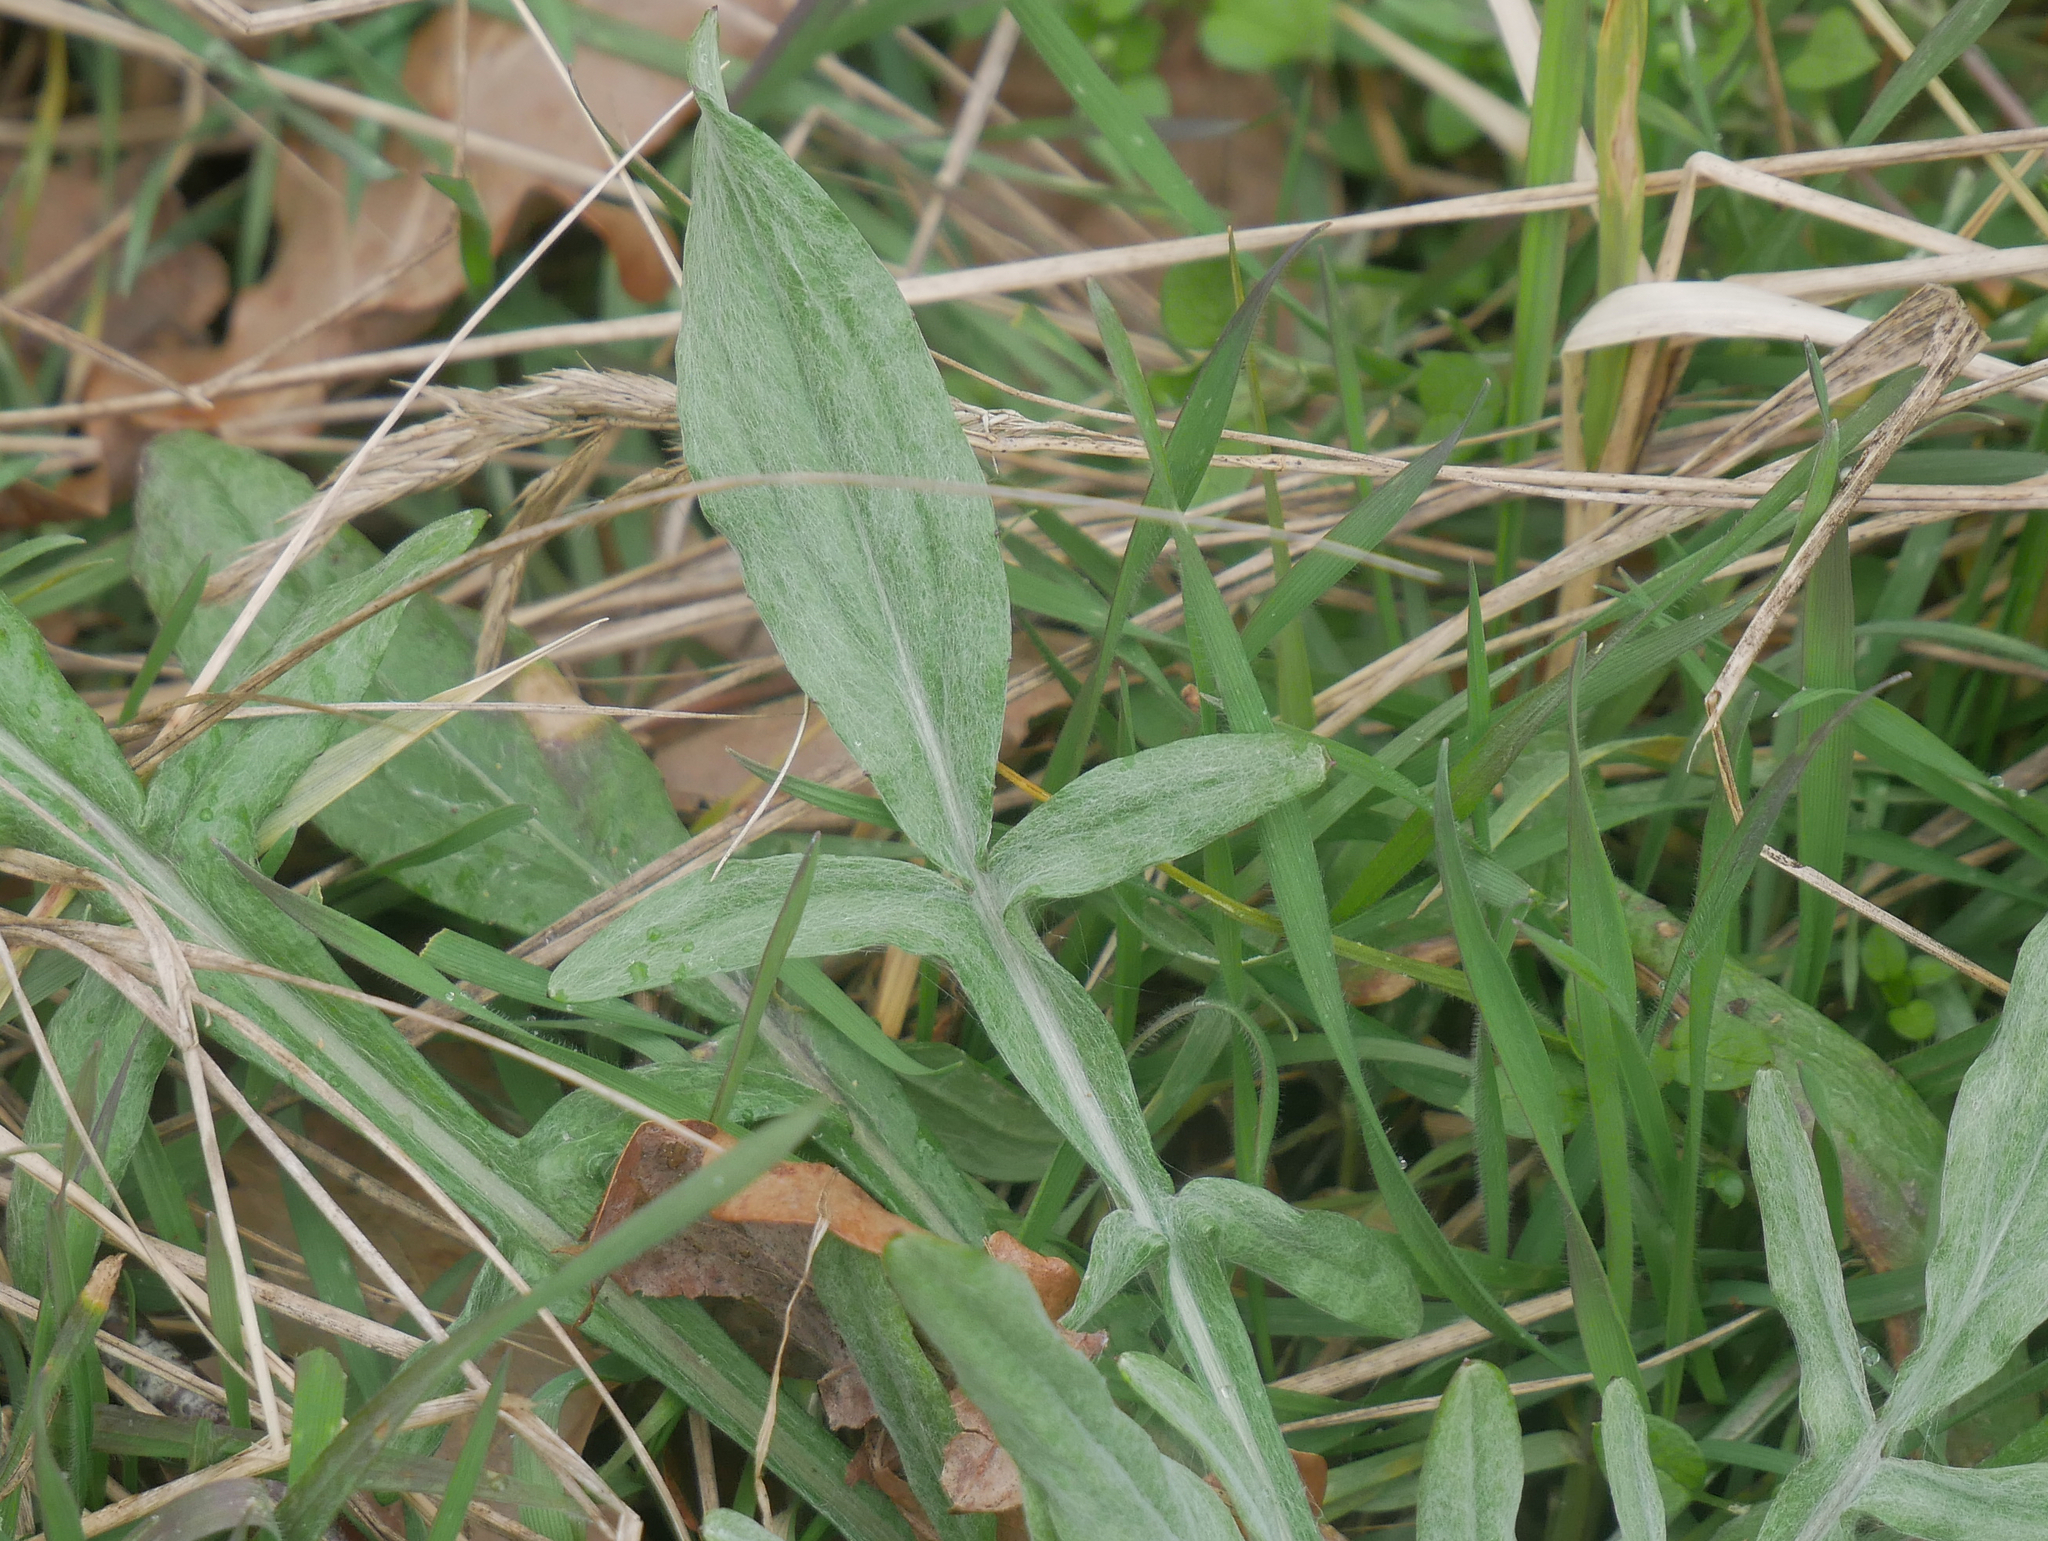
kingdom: Plantae
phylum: Tracheophyta
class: Magnoliopsida
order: Dipsacales
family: Caprifoliaceae
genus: Knautia
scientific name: Knautia arvensis
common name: Field scabiosa
